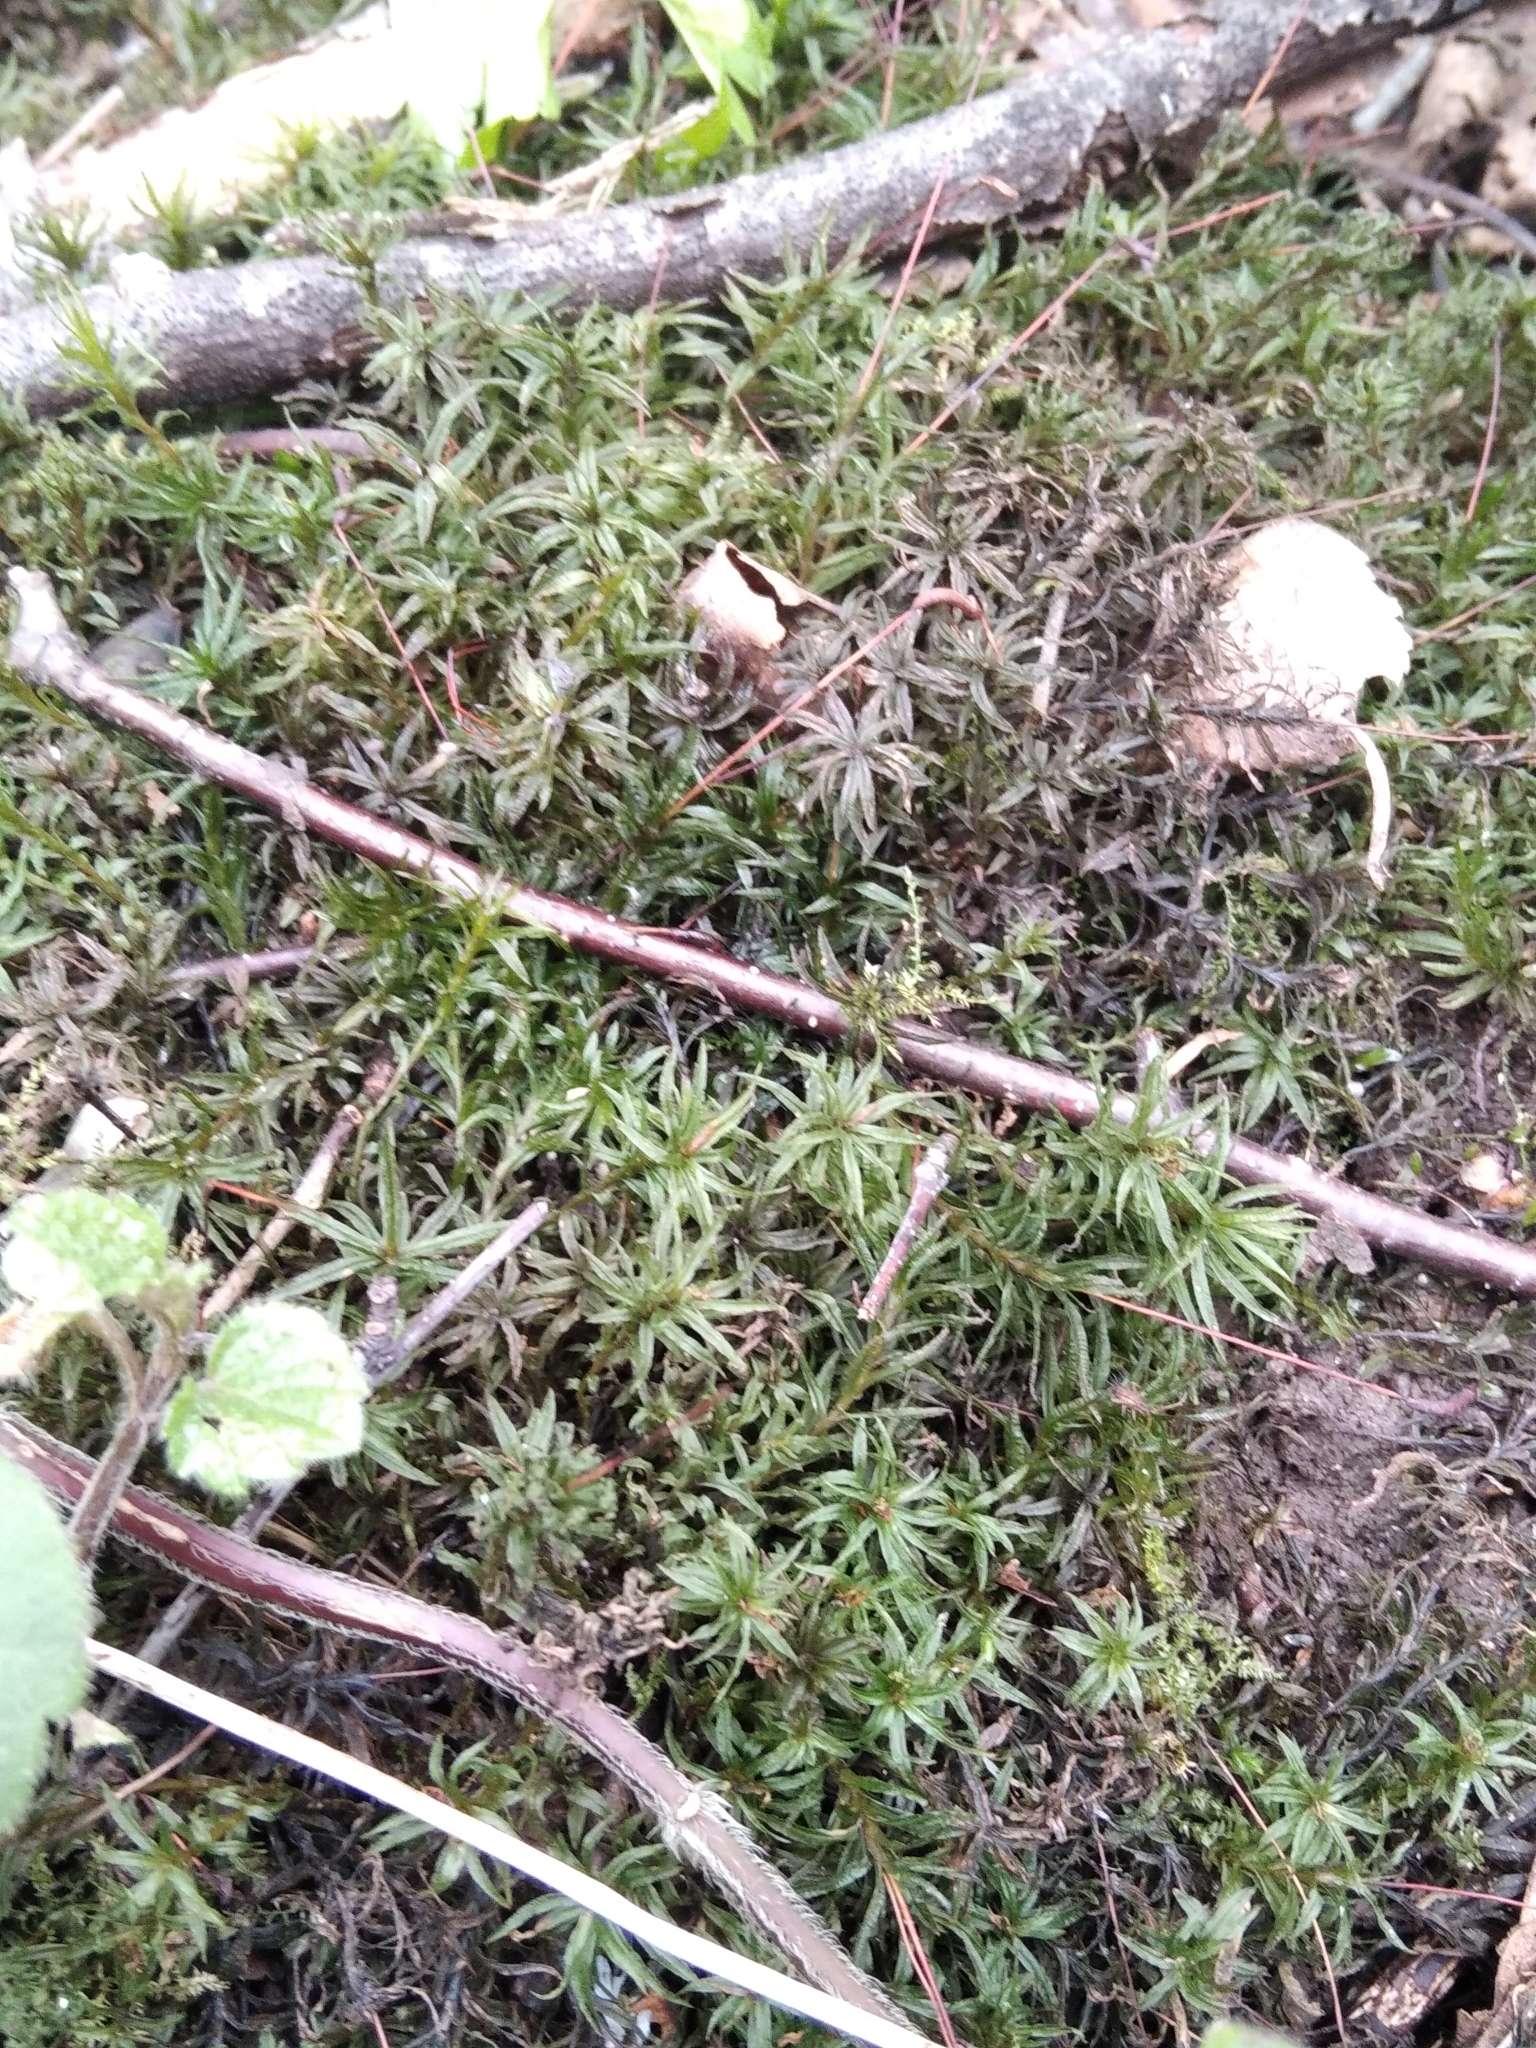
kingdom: Plantae
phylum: Bryophyta
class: Polytrichopsida
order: Polytrichales
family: Polytrichaceae
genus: Atrichum
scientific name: Atrichum undulatum
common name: Common smoothcap
